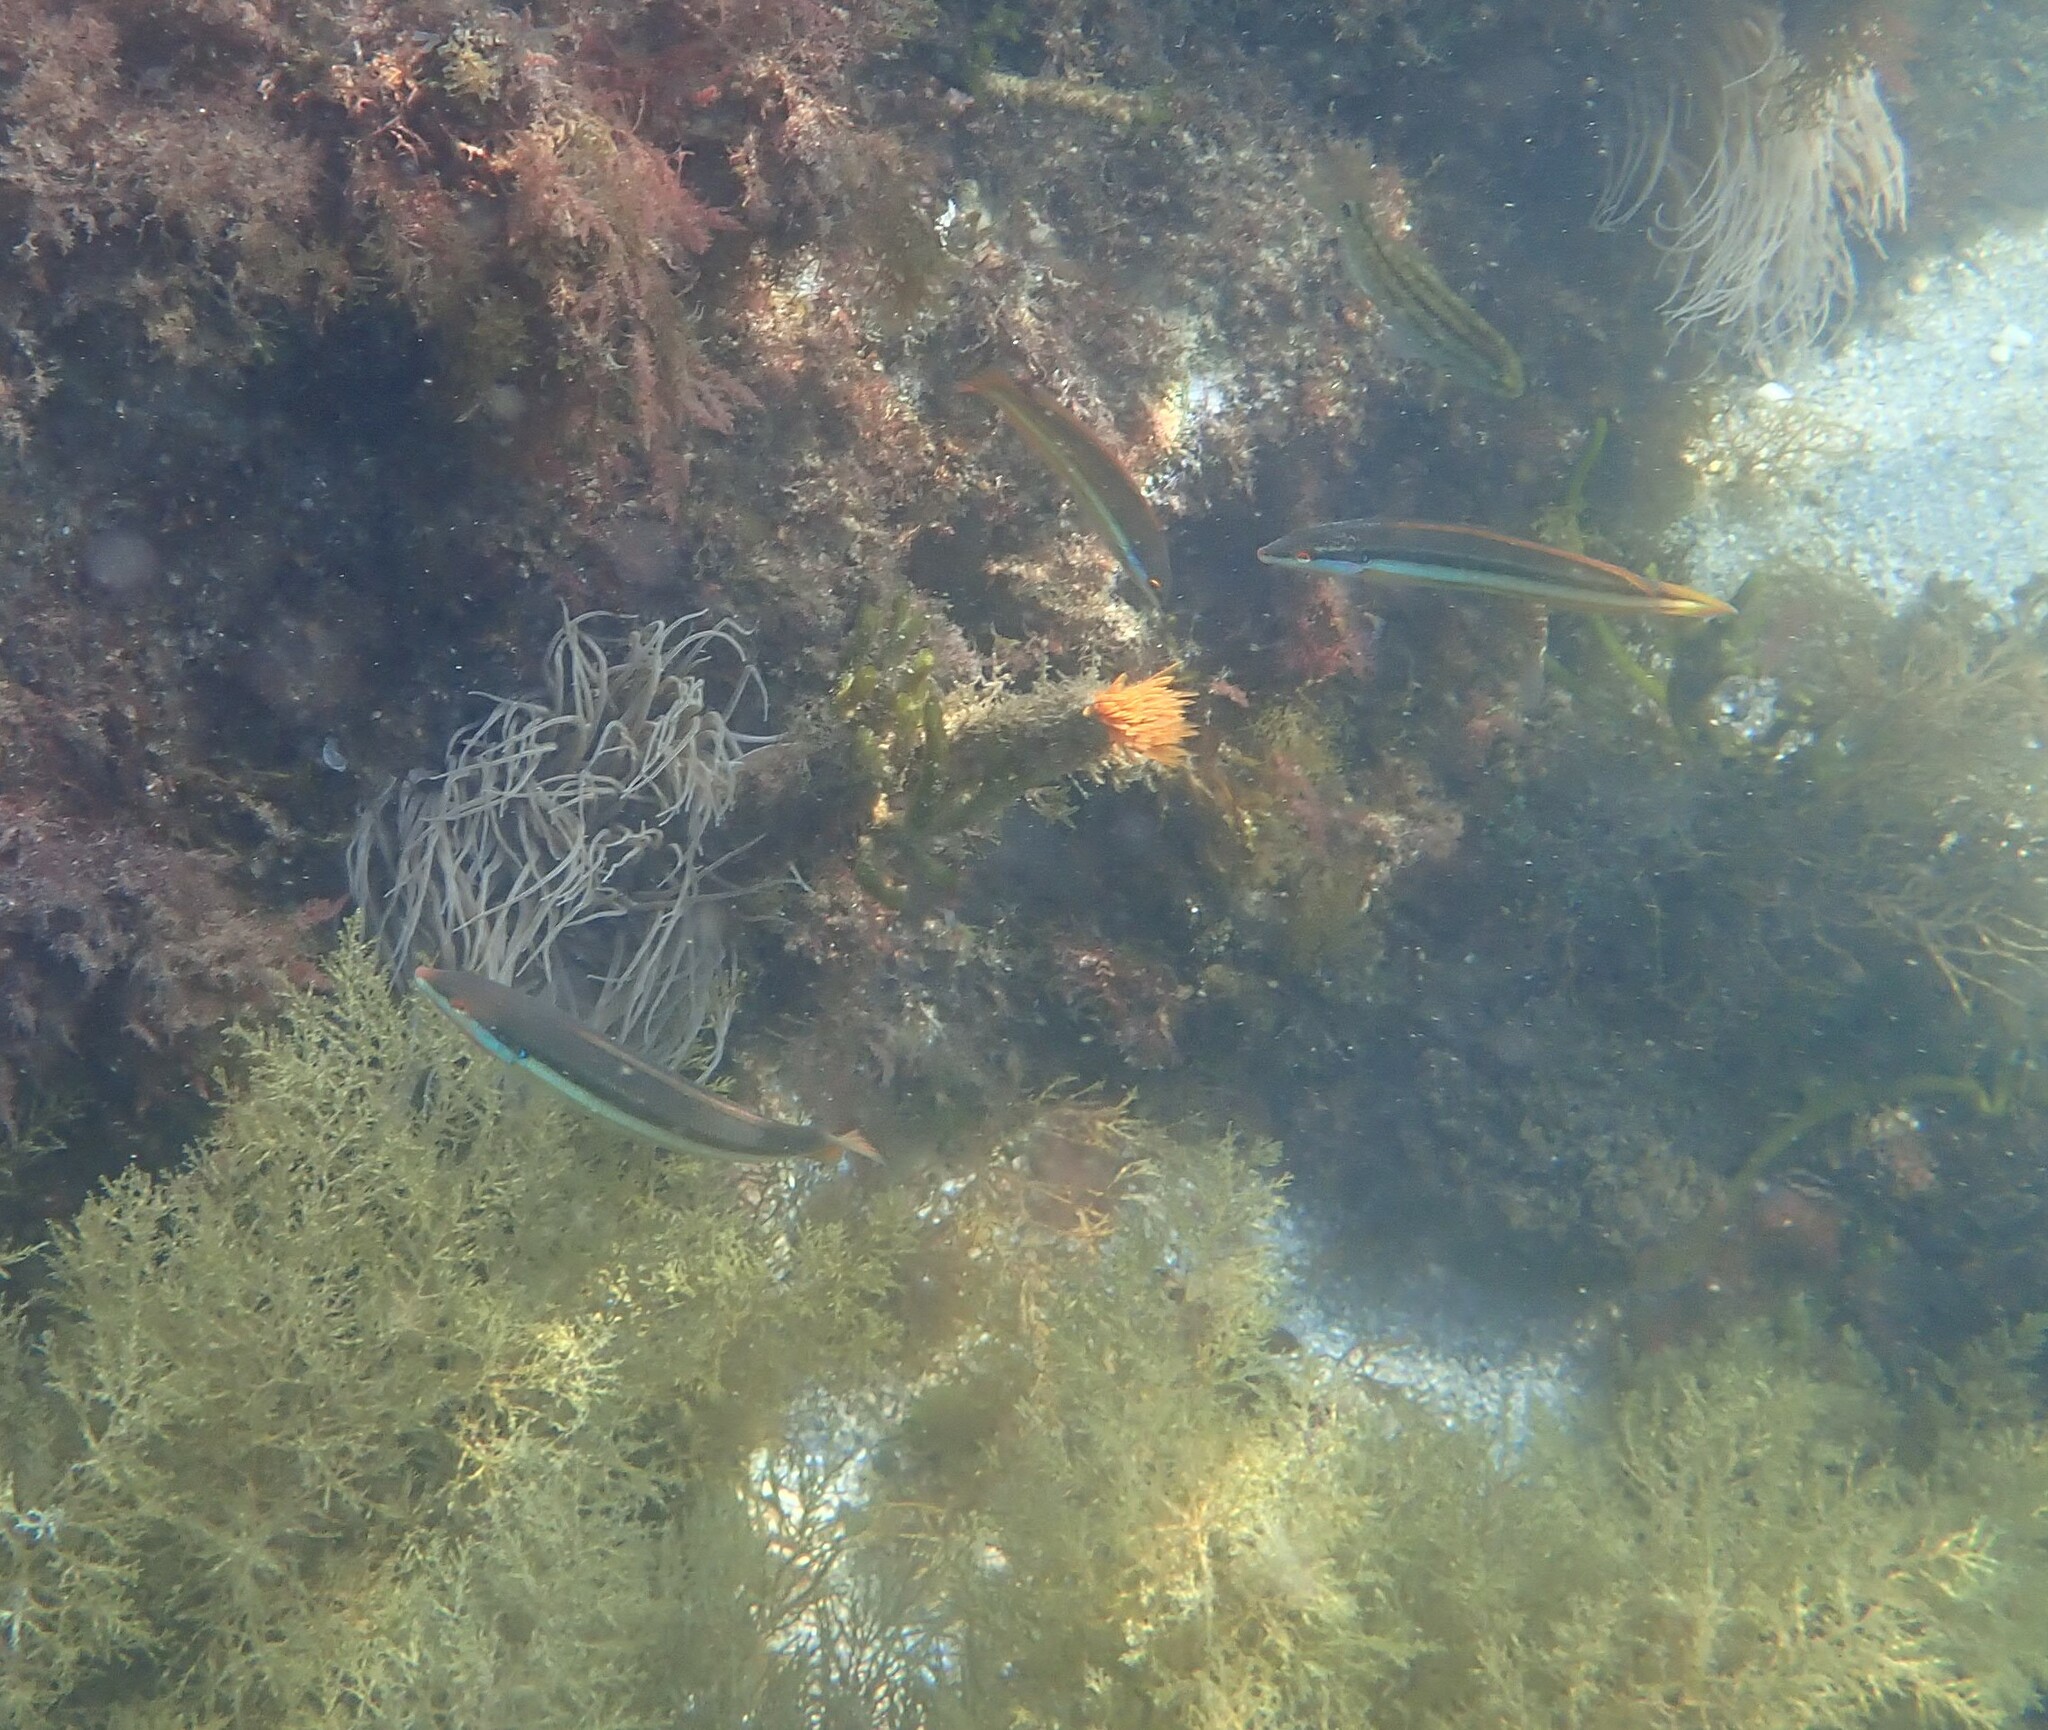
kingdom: Animalia
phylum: Chordata
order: Perciformes
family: Labridae
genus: Coris
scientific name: Coris
